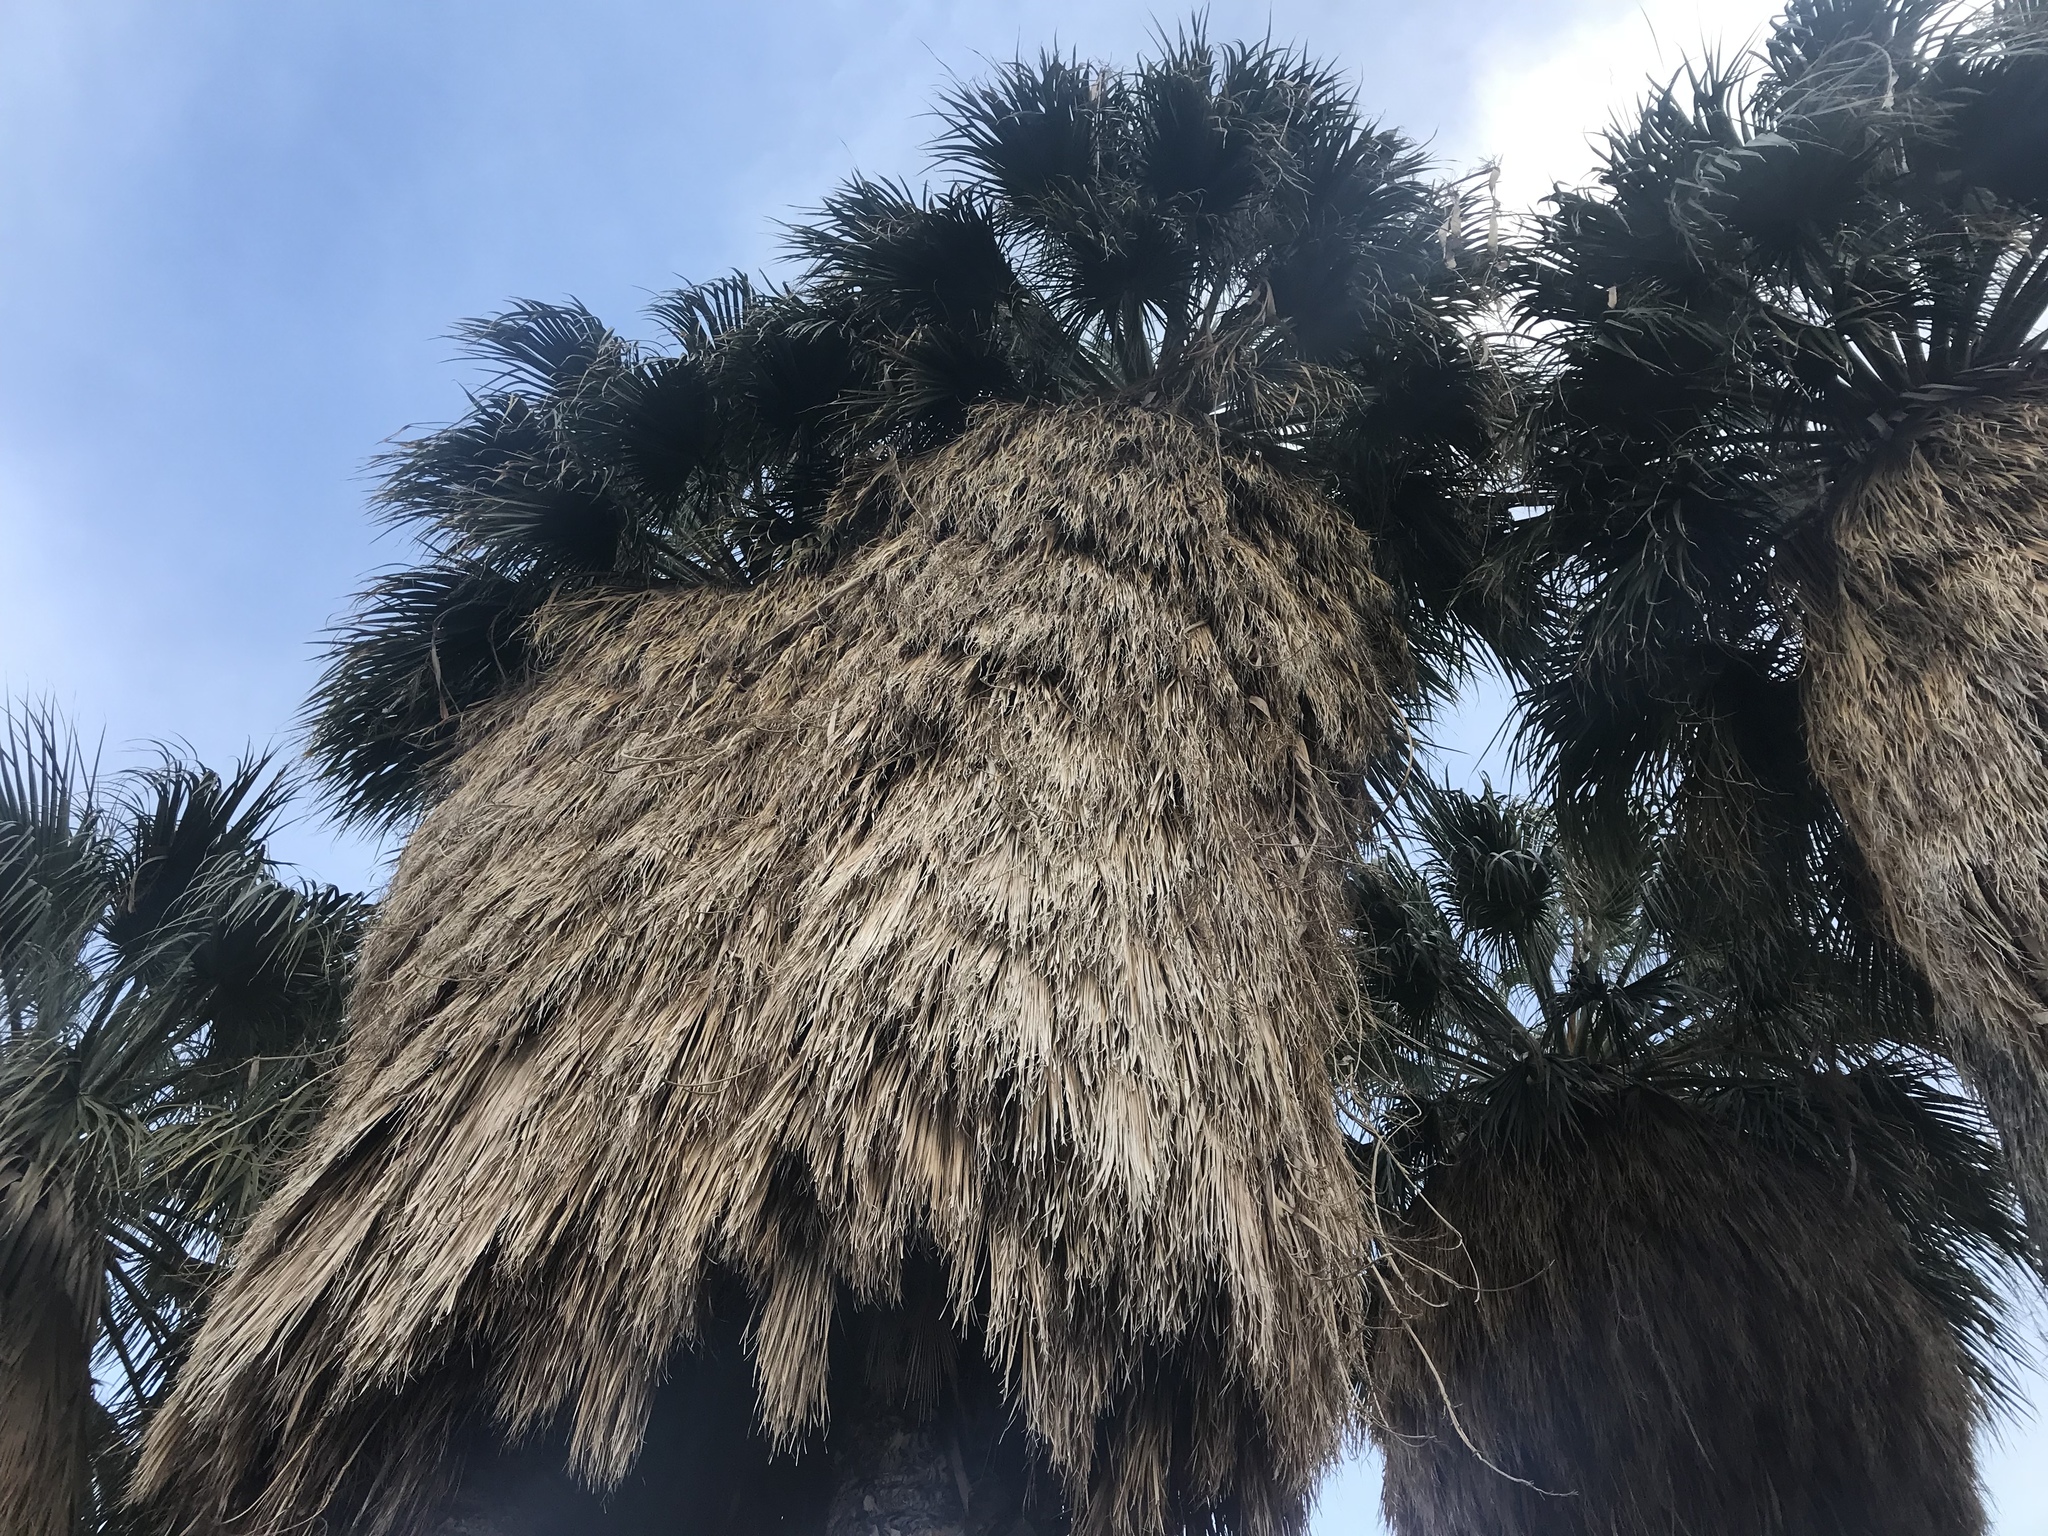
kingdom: Plantae
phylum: Tracheophyta
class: Liliopsida
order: Arecales
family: Arecaceae
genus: Washingtonia
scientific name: Washingtonia filifera
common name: California fan palm
